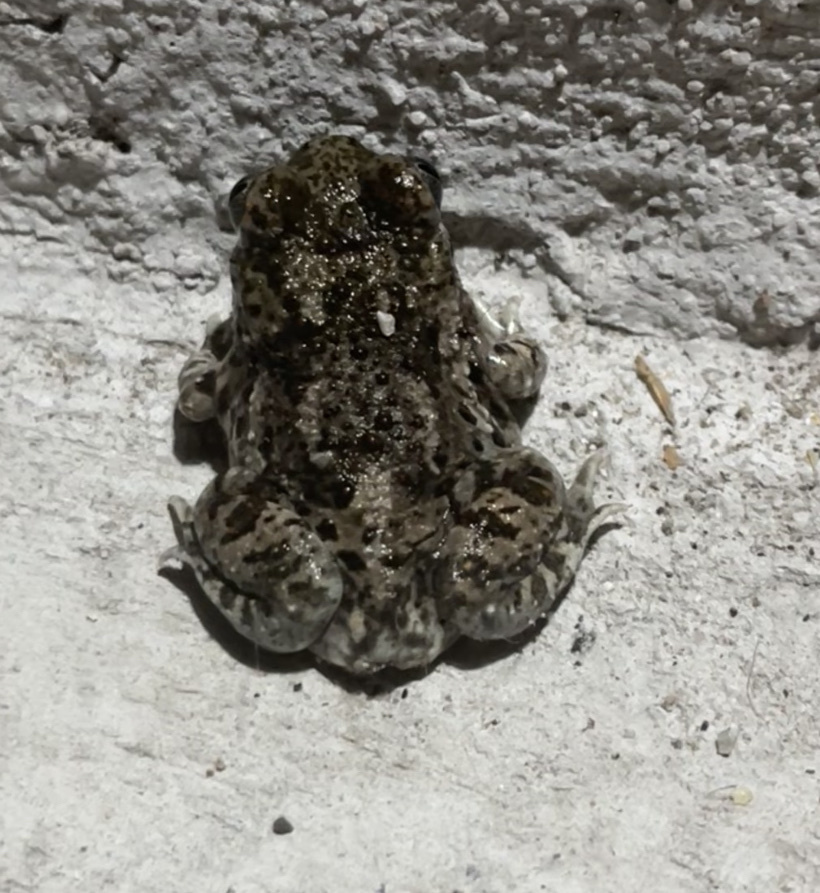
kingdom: Animalia
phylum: Chordata
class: Amphibia
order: Anura
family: Scaphiopodidae
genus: Spea
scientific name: Spea multiplicata
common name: Mexican spadefoot
